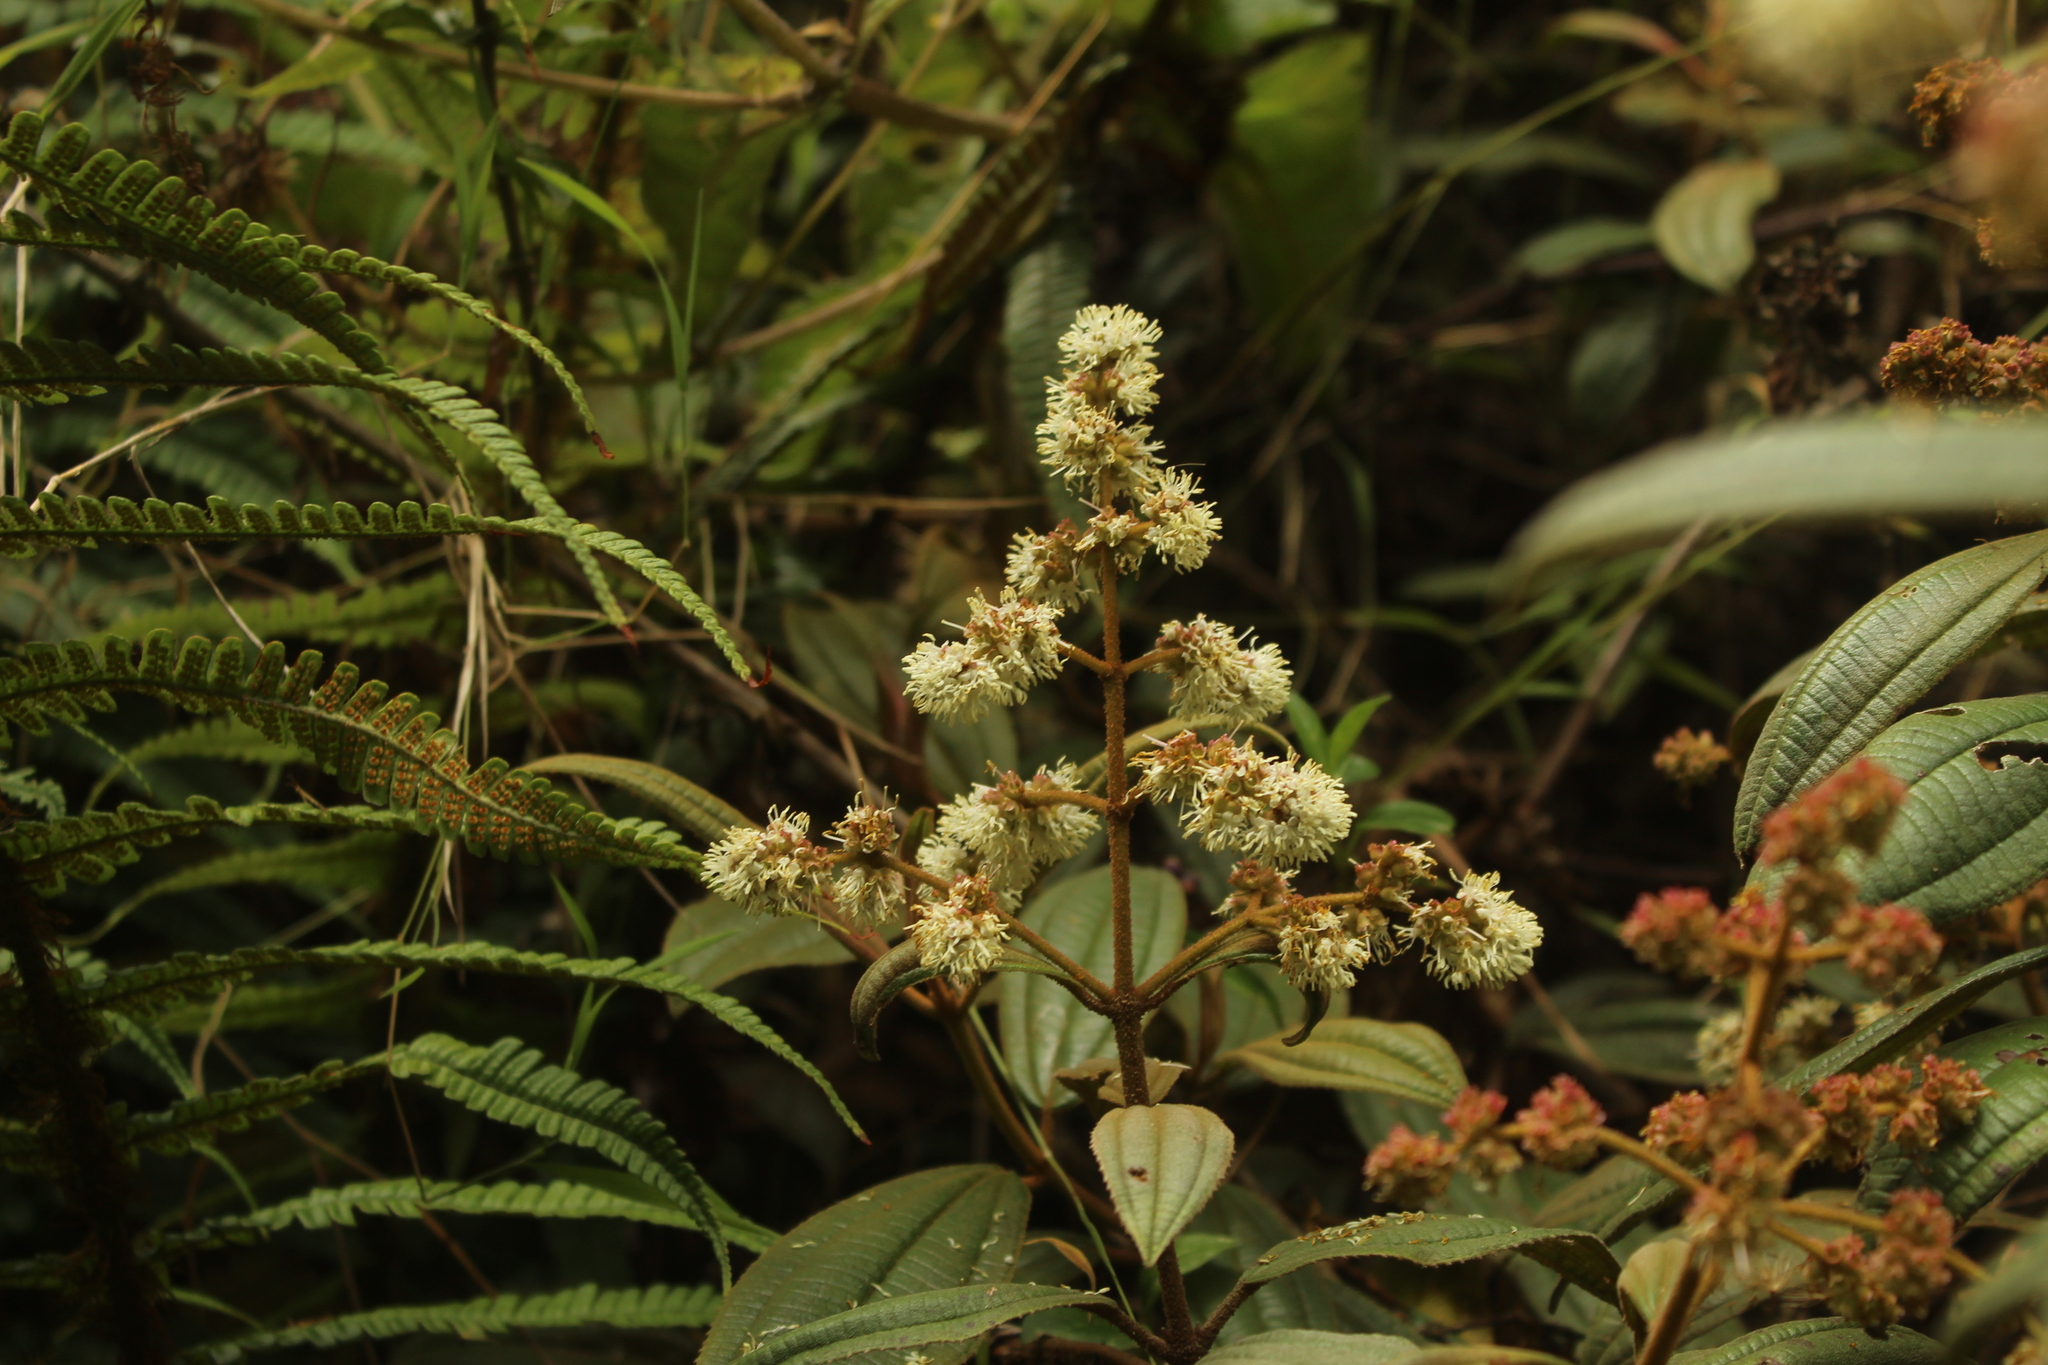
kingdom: Plantae
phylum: Tracheophyta
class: Magnoliopsida
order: Myrtales
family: Melastomataceae
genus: Miconia
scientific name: Miconia cataractae
